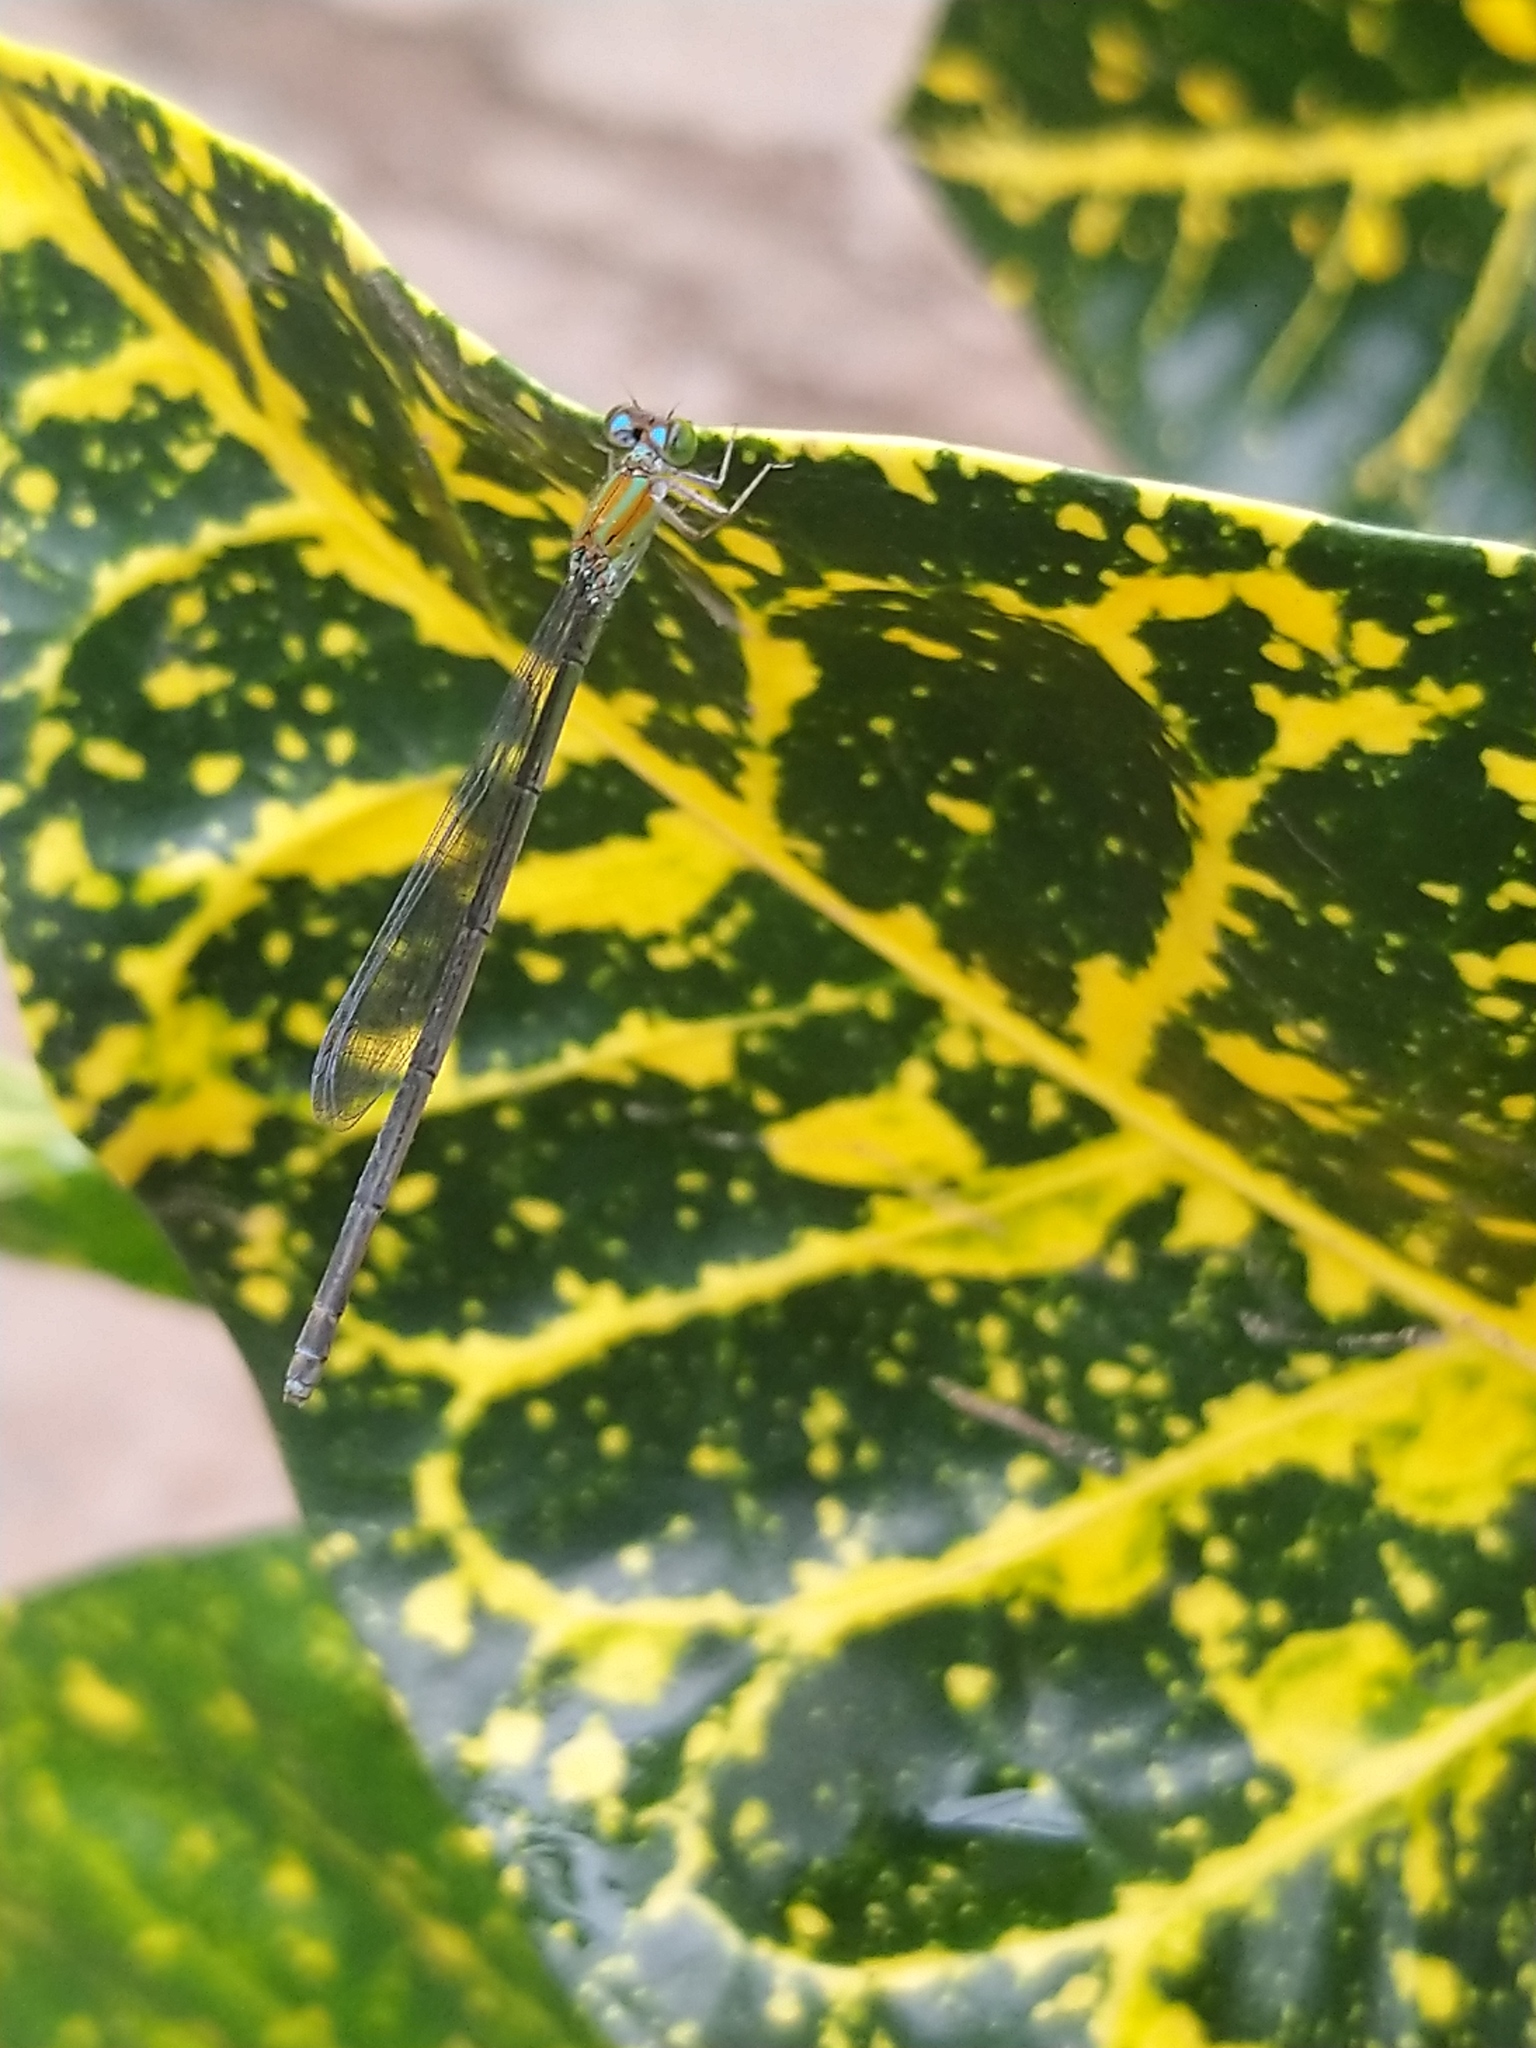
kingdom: Animalia
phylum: Arthropoda
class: Insecta
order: Odonata
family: Coenagrionidae
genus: Pseudagrion
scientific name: Pseudagrion microcephalum
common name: Blue riverdamsel
